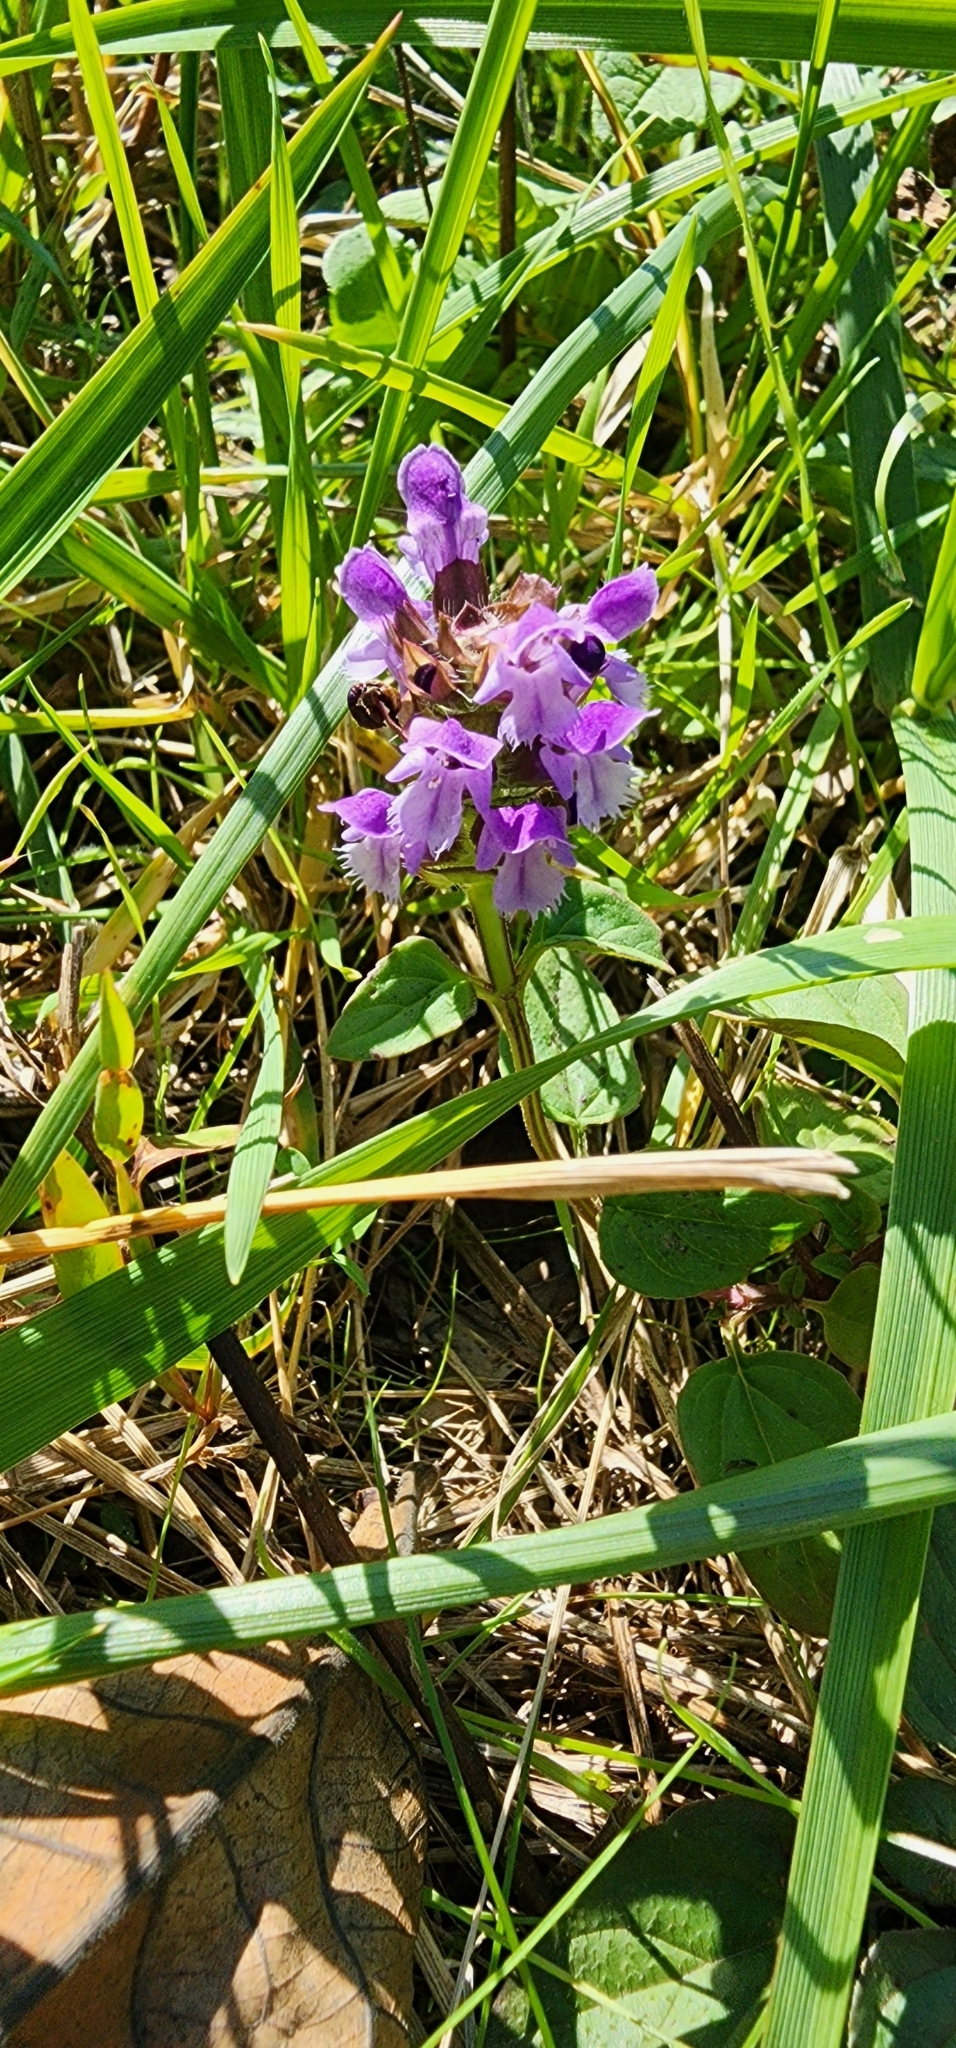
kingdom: Plantae
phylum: Tracheophyta
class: Magnoliopsida
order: Lamiales
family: Lamiaceae
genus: Prunella
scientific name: Prunella vulgaris
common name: Heal-all
